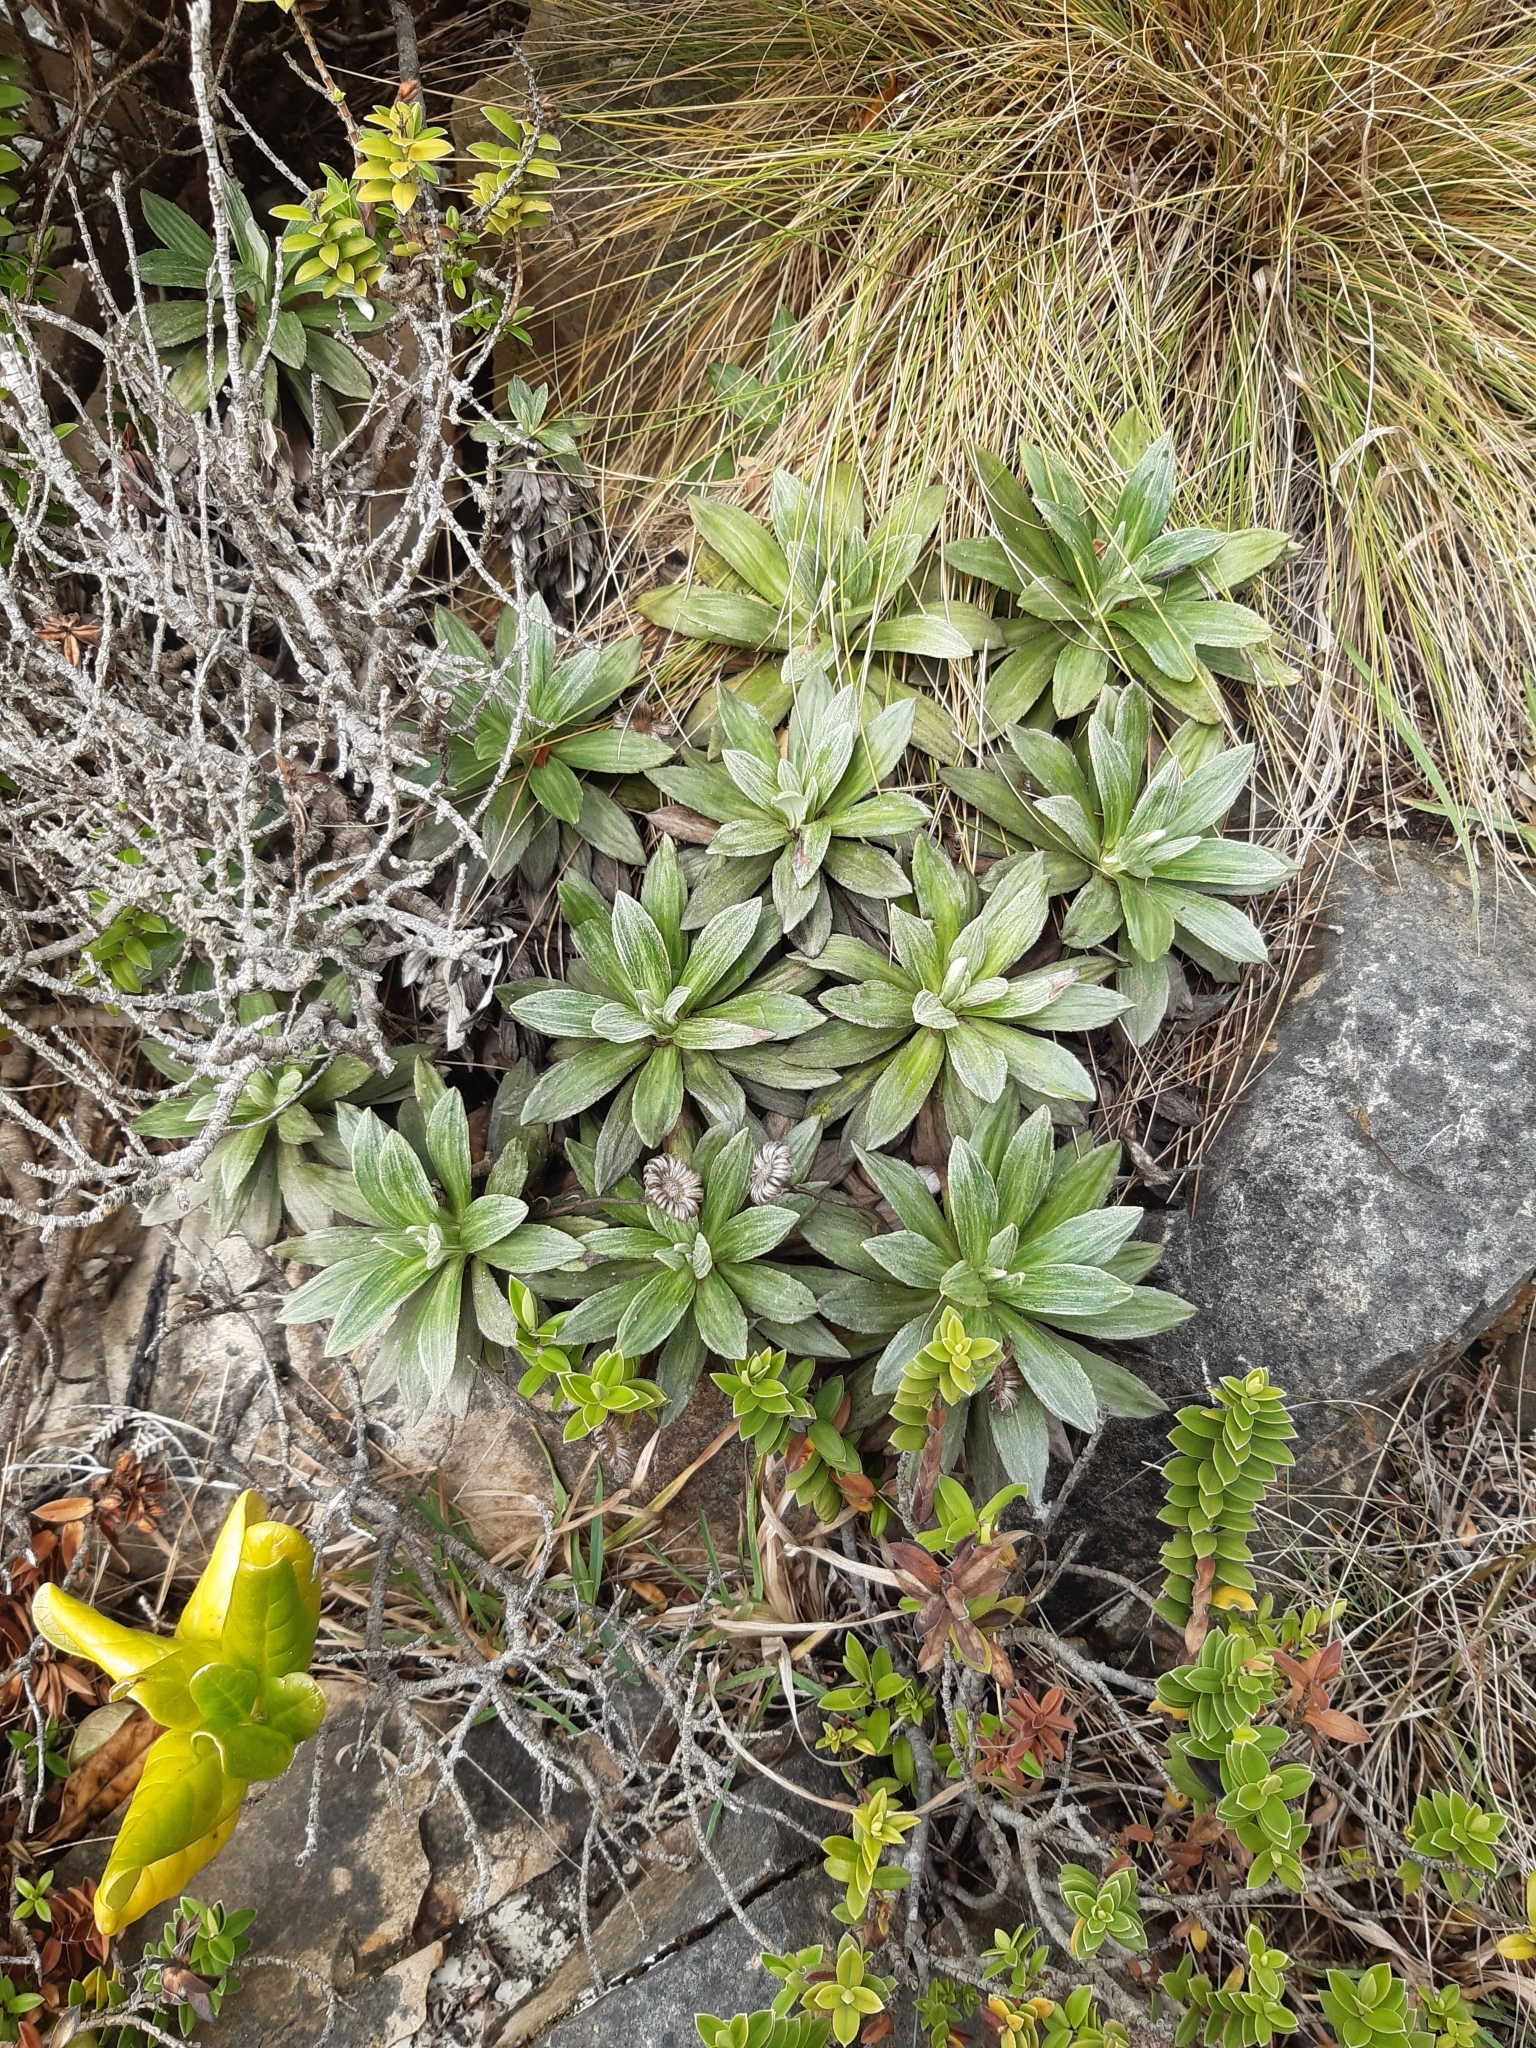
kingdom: Plantae
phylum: Tracheophyta
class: Magnoliopsida
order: Asterales
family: Asteraceae
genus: Celmisia
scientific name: Celmisia lindsayi
